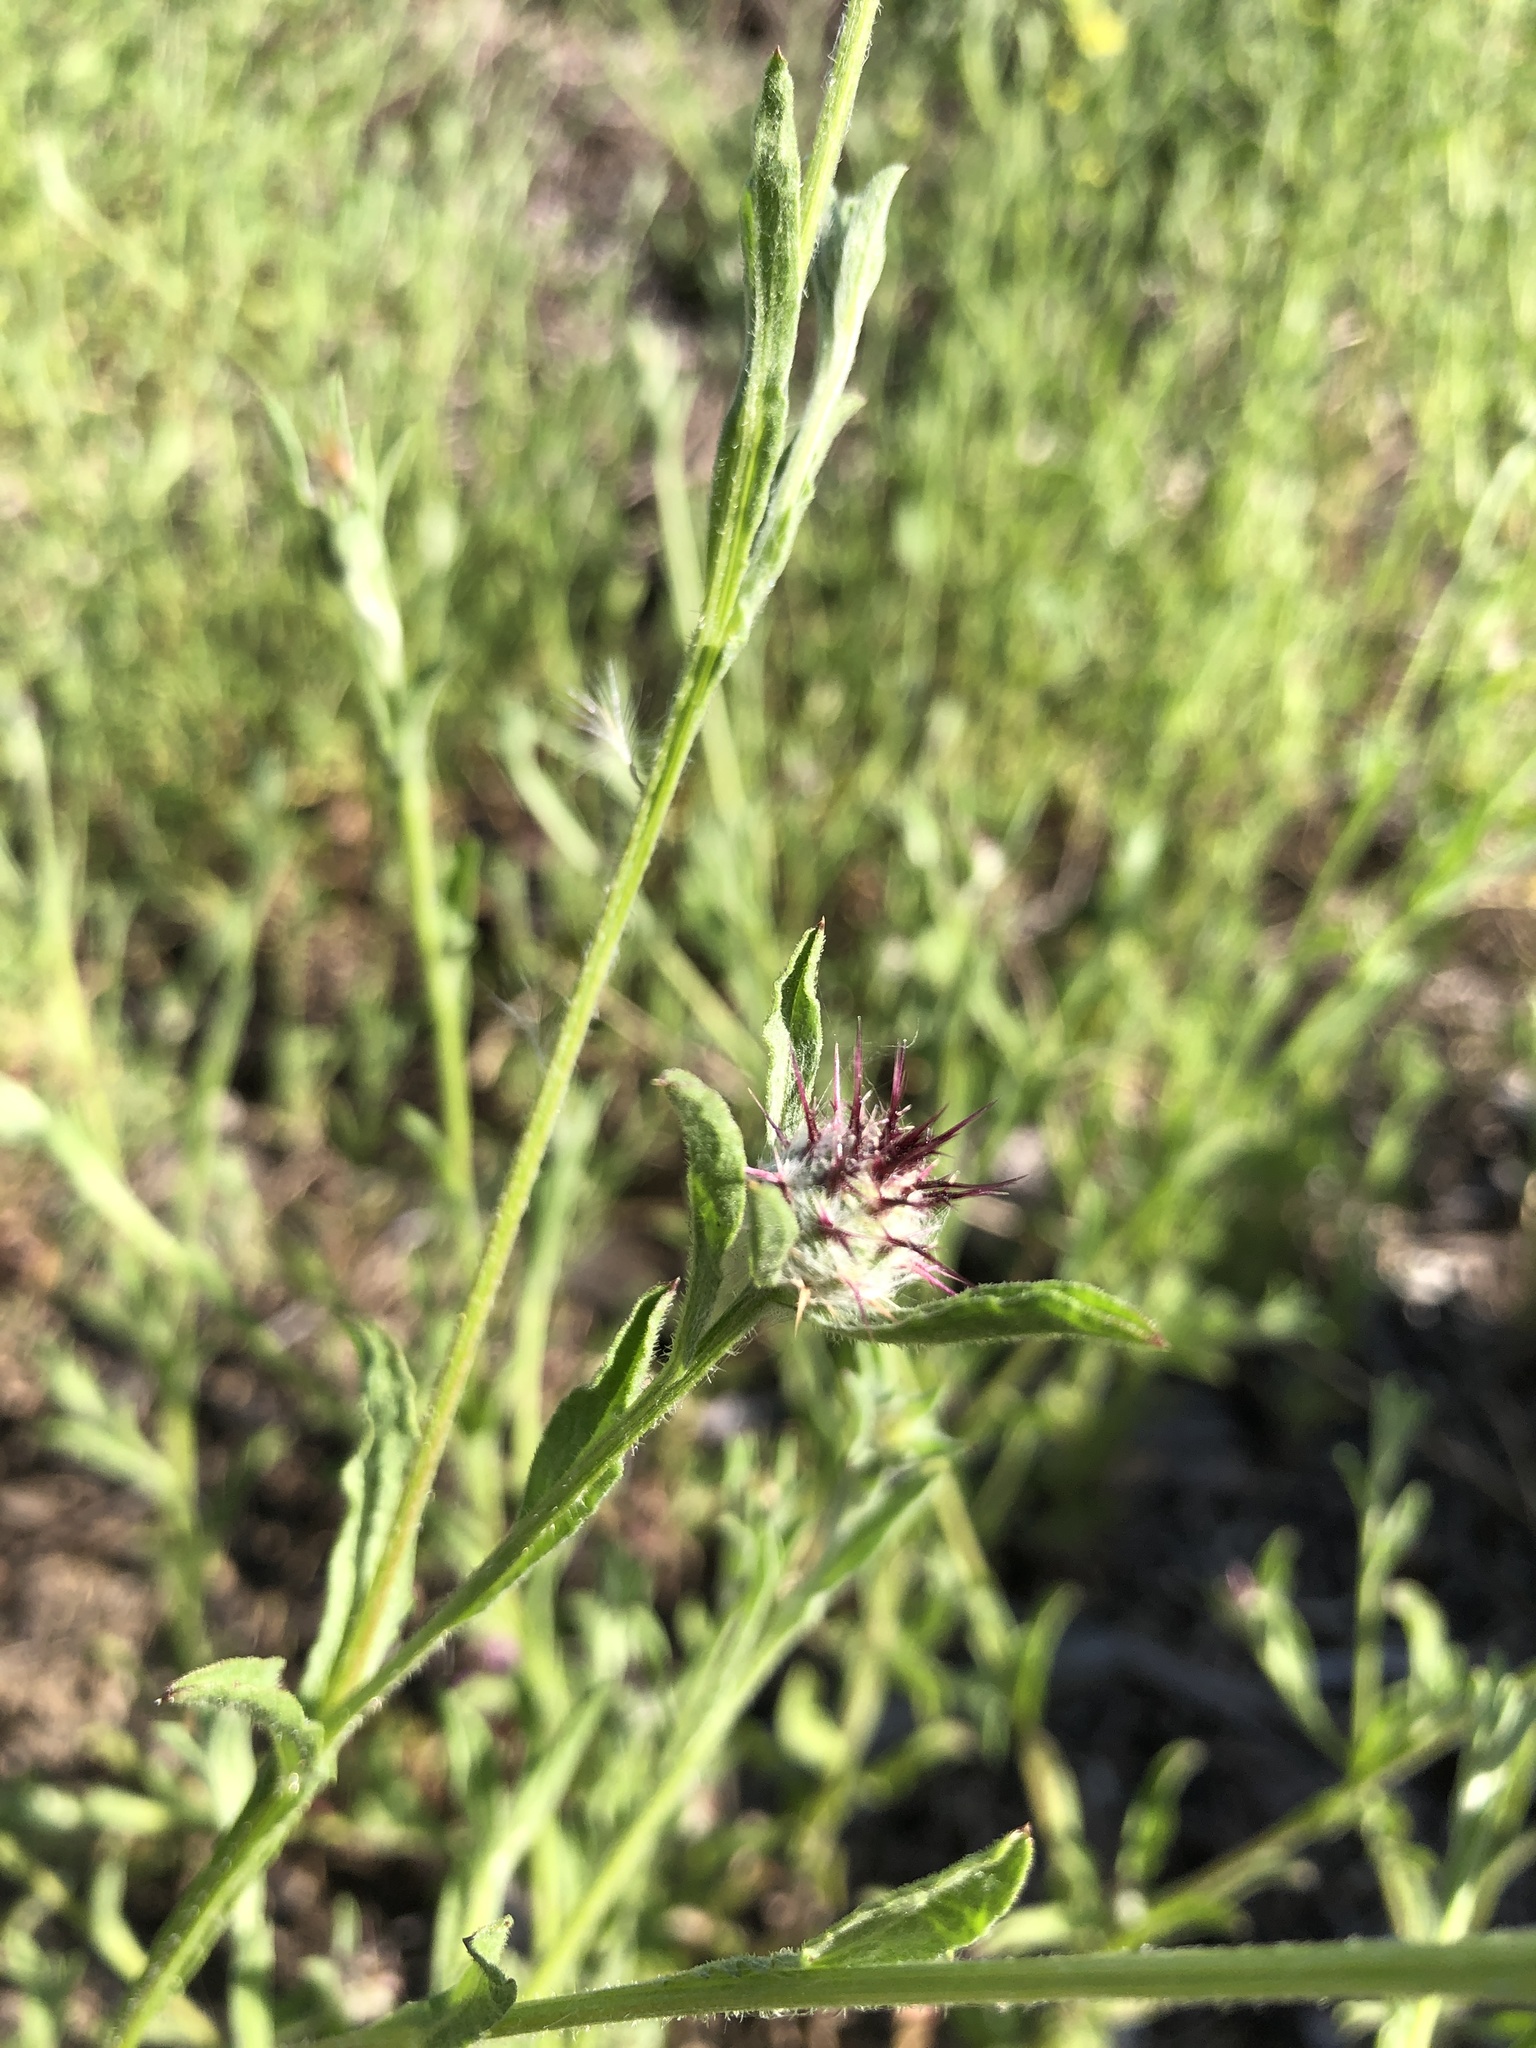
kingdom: Plantae
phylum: Tracheophyta
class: Magnoliopsida
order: Asterales
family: Asteraceae
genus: Centaurea
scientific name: Centaurea melitensis
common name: Maltese star-thistle
